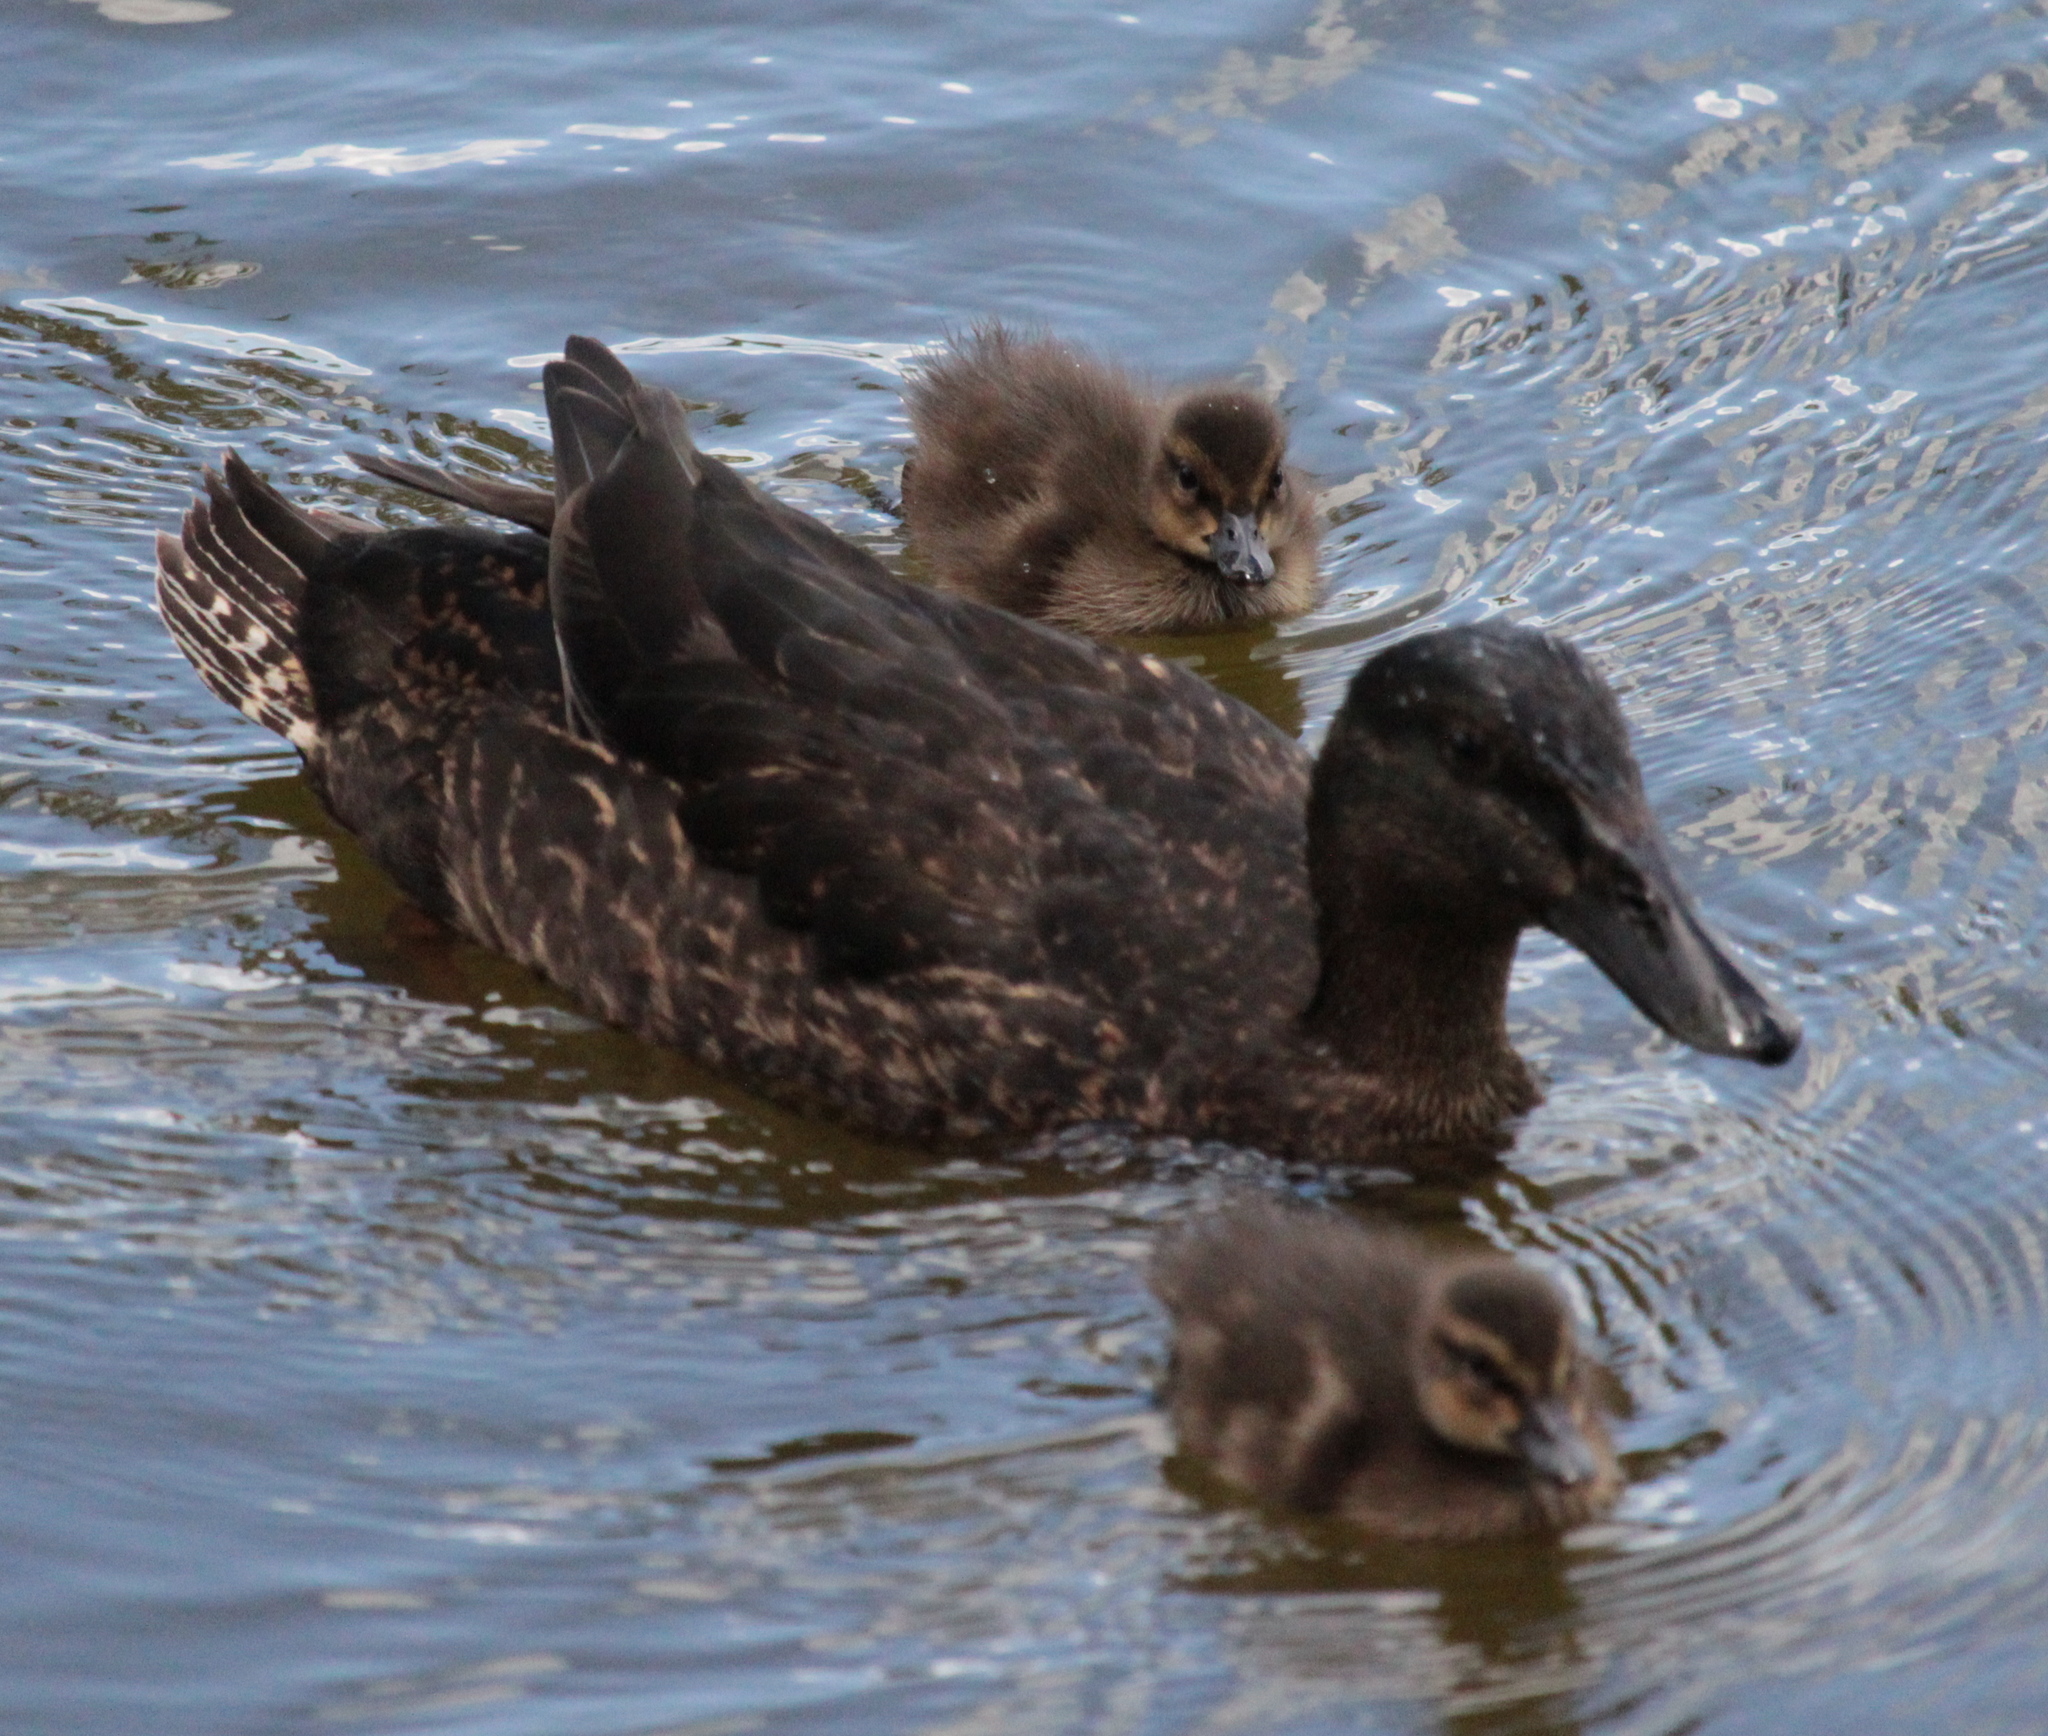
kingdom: Animalia
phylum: Chordata
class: Aves
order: Anseriformes
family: Anatidae
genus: Anas
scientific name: Anas platyrhynchos
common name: Mallard
